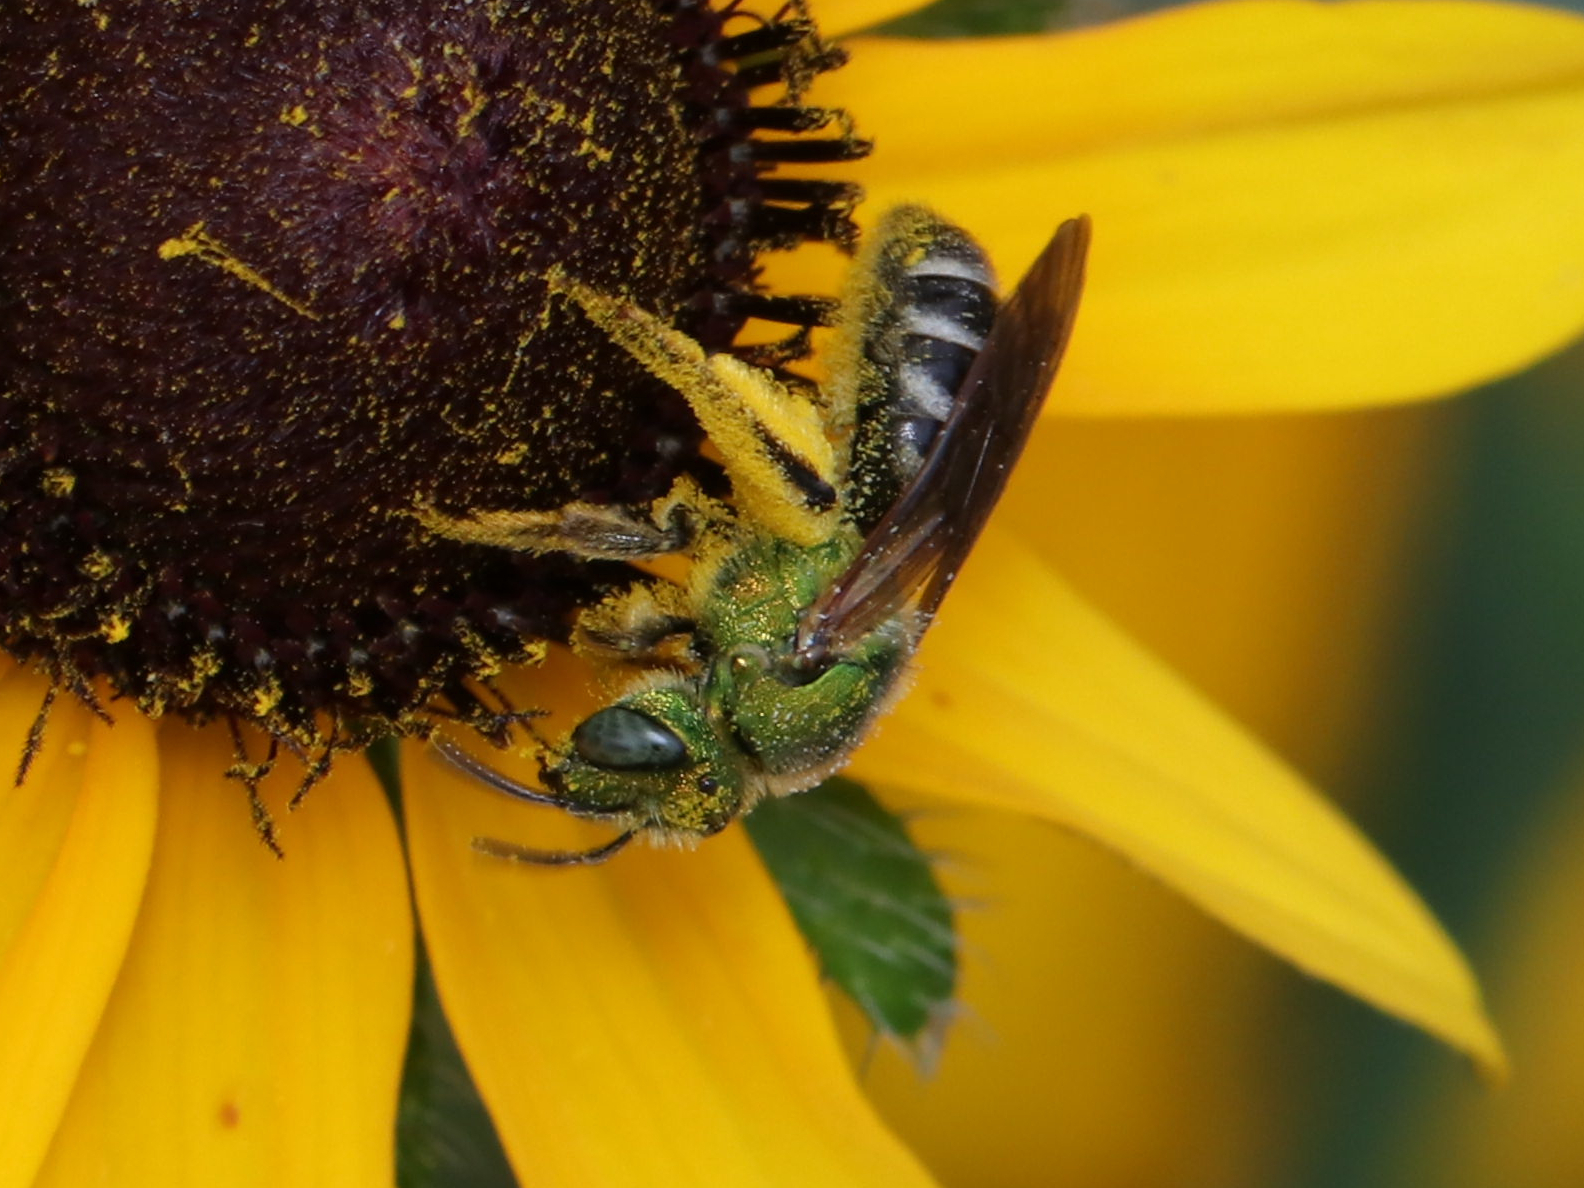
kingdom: Animalia
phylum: Arthropoda
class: Insecta
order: Hymenoptera
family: Halictidae
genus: Agapostemon
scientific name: Agapostemon virescens
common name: Bicolored striped sweat bee
